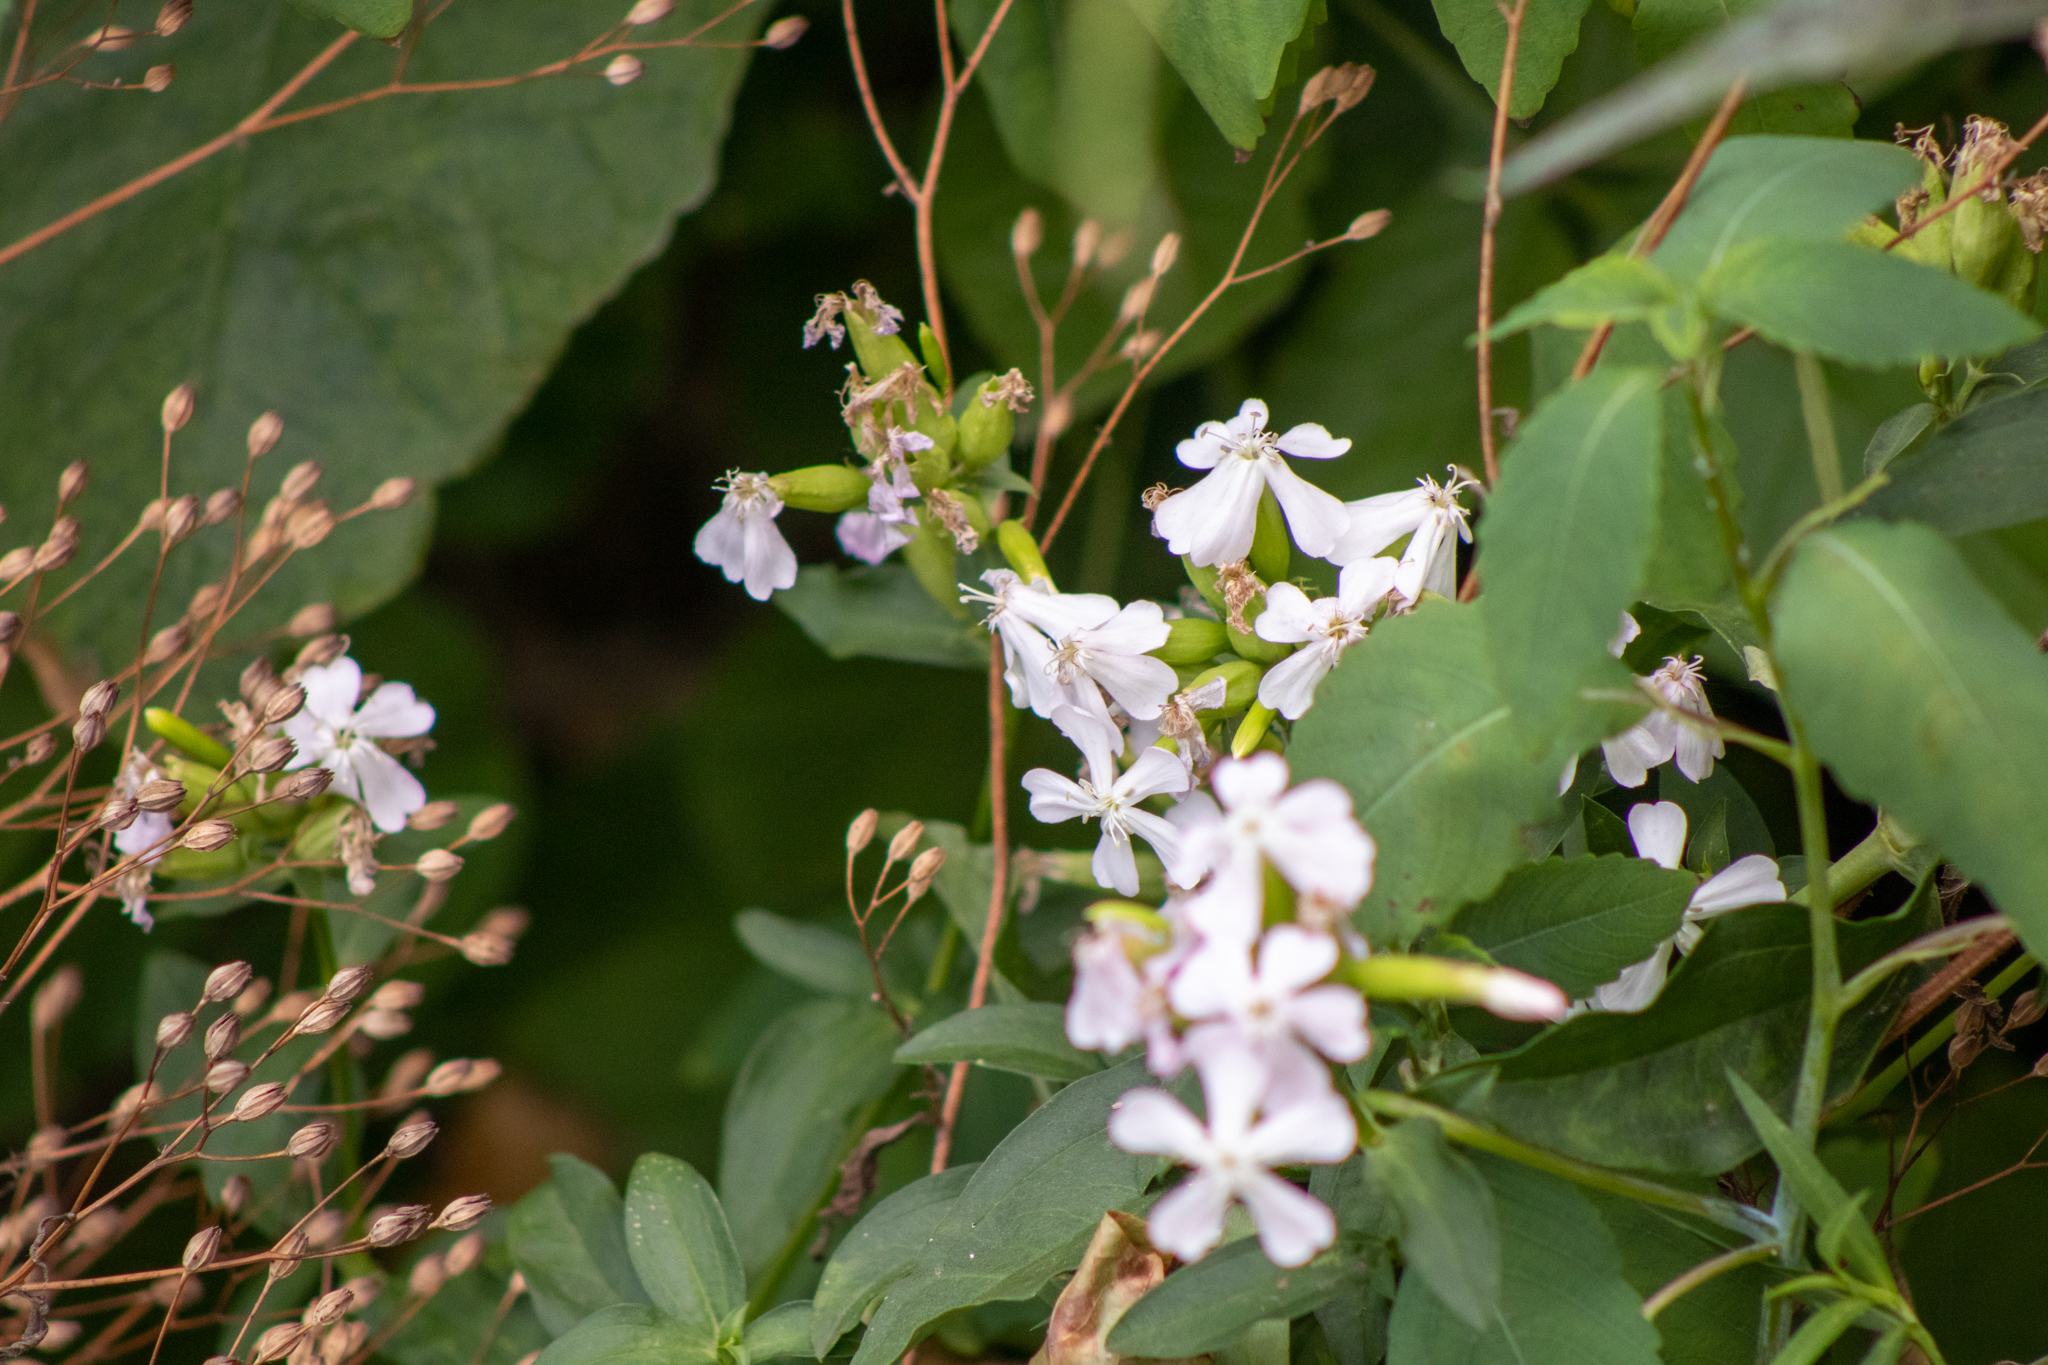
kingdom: Plantae
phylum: Tracheophyta
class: Magnoliopsida
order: Caryophyllales
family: Caryophyllaceae
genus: Saponaria
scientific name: Saponaria officinalis
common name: Soapwort
